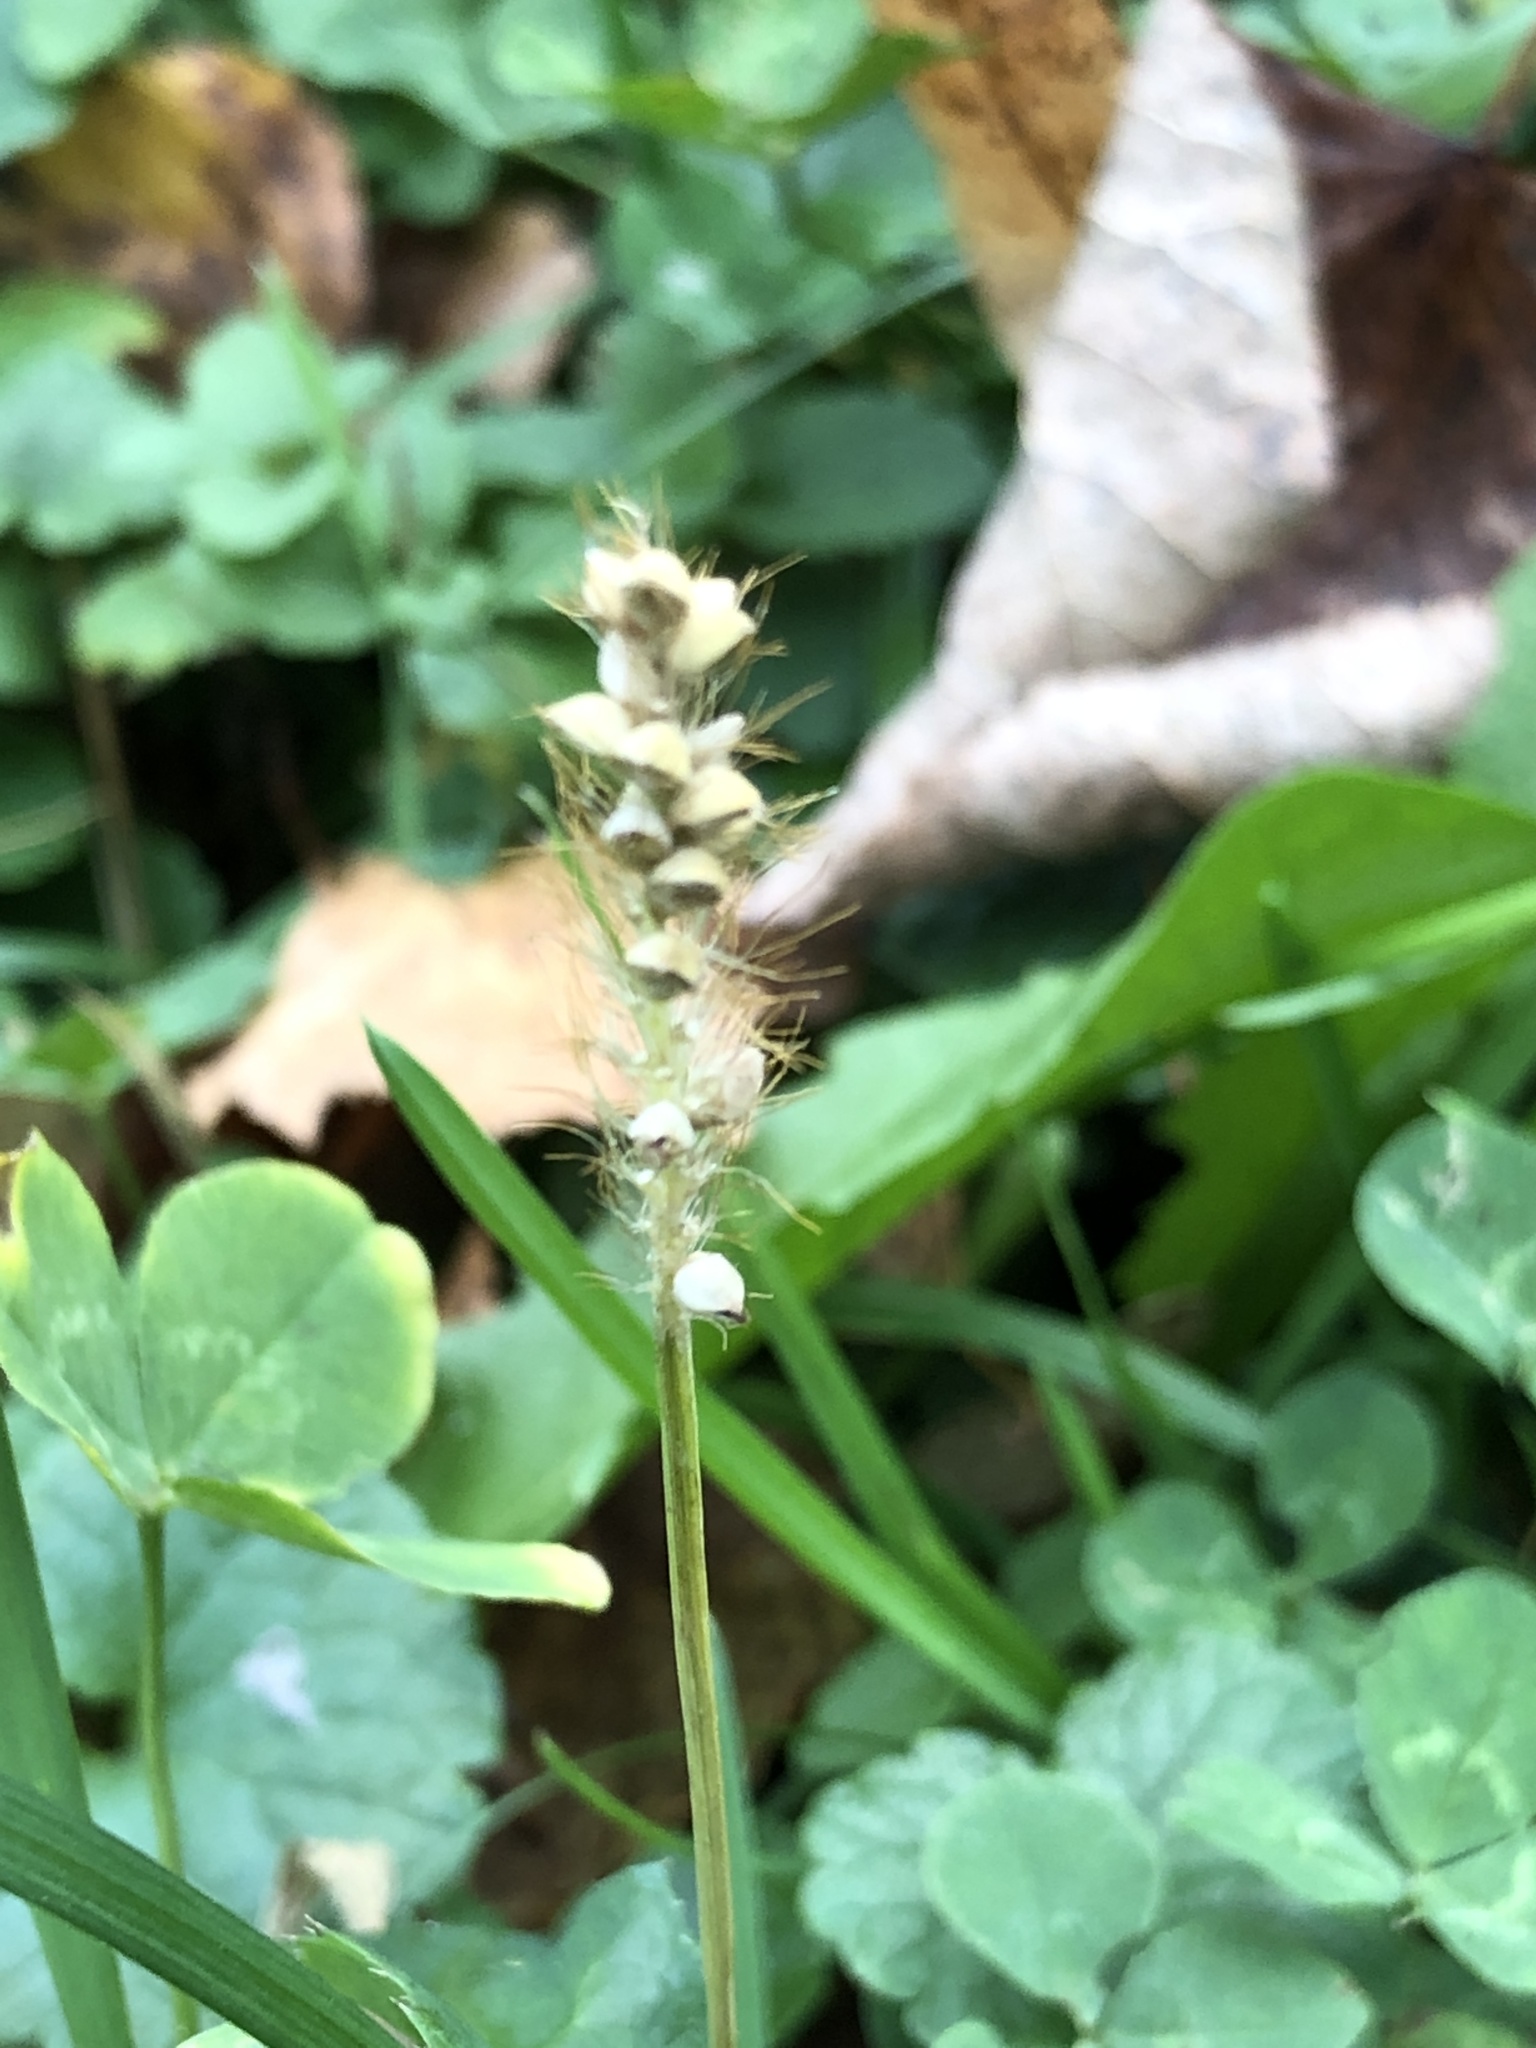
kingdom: Plantae
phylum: Tracheophyta
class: Liliopsida
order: Poales
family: Poaceae
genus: Setaria
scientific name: Setaria pumila
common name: Yellow bristle-grass
